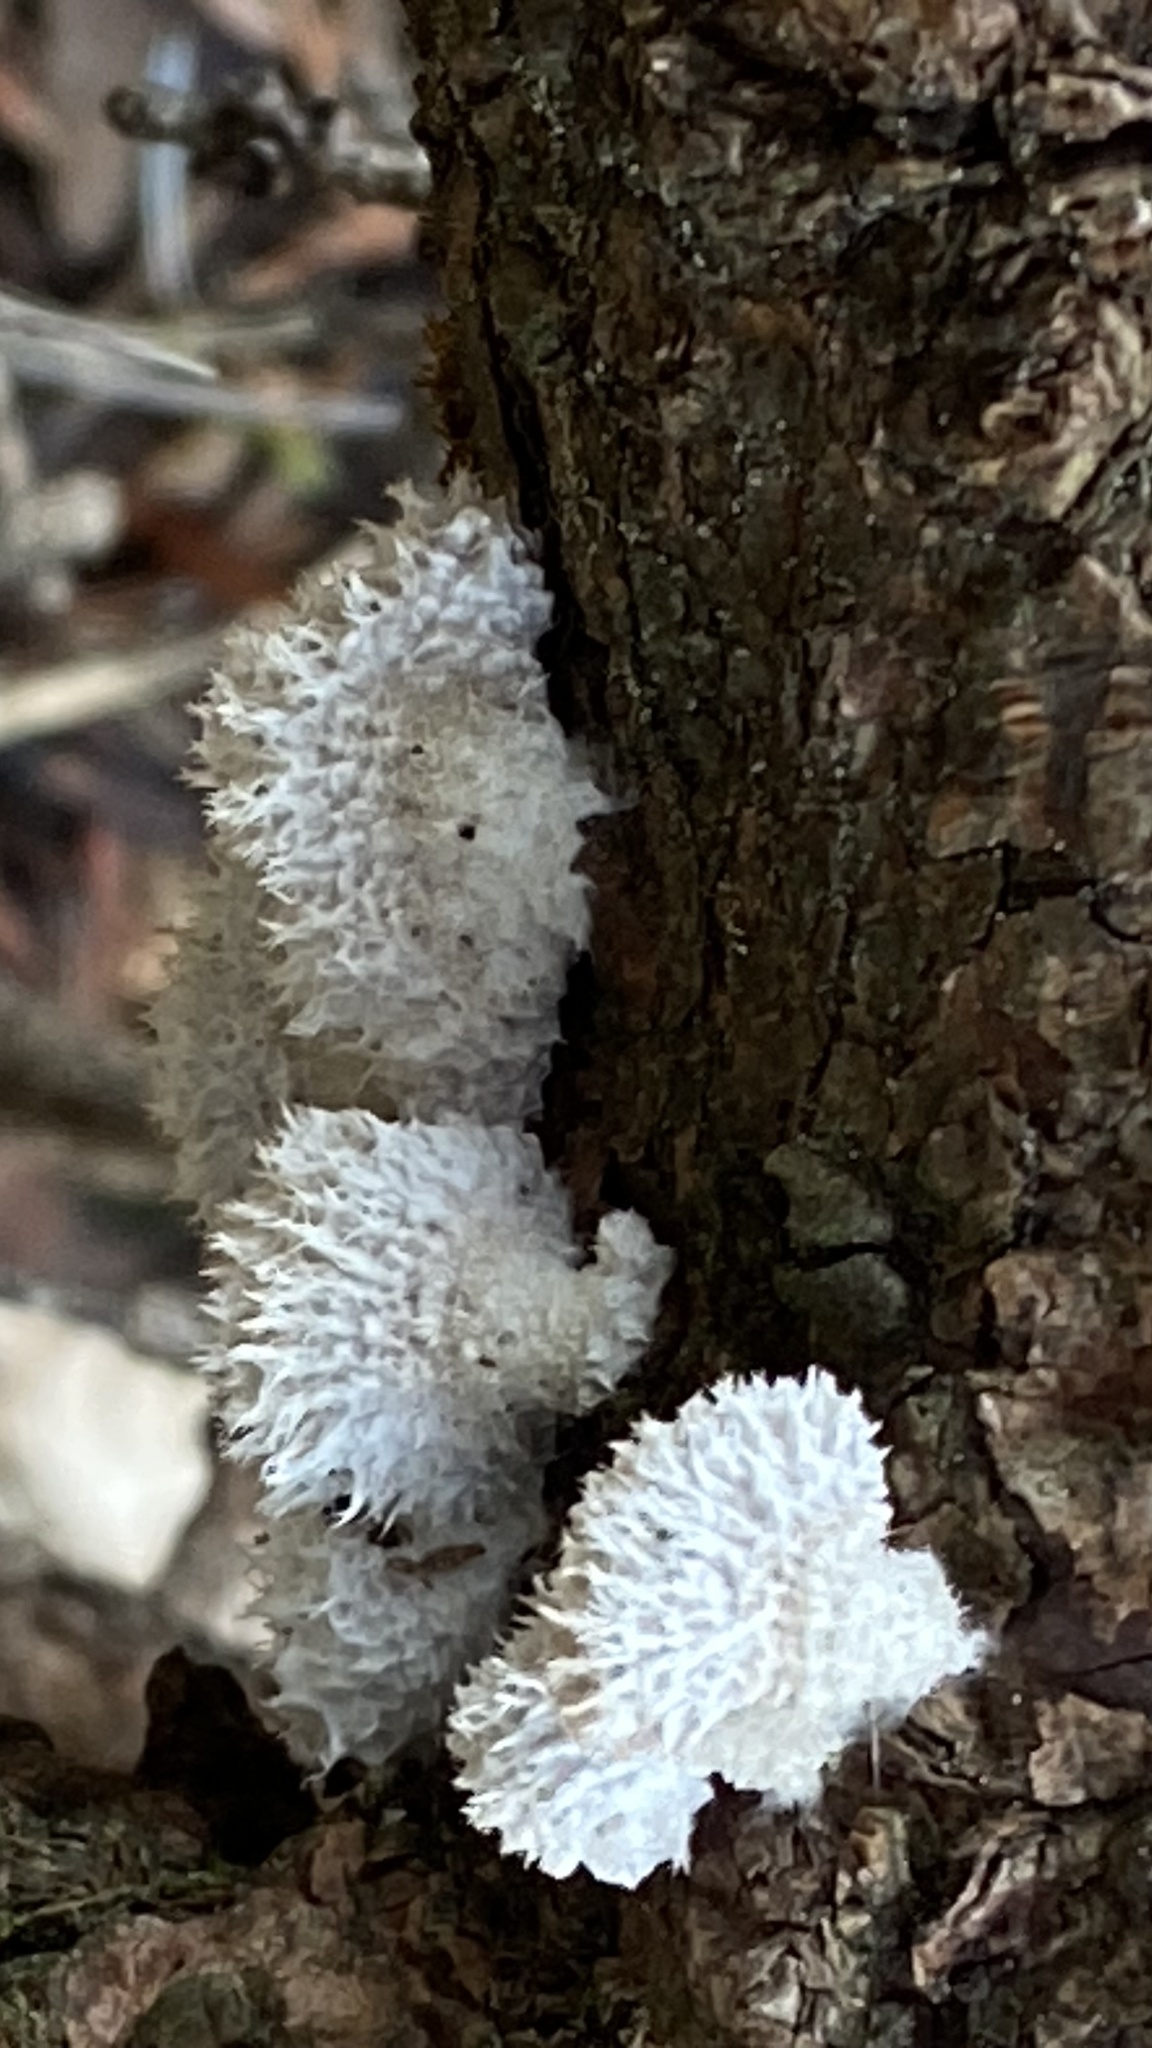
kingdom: Fungi
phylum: Basidiomycota
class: Agaricomycetes
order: Agaricales
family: Schizophyllaceae
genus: Schizophyllum
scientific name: Schizophyllum commune
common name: Common porecrust
